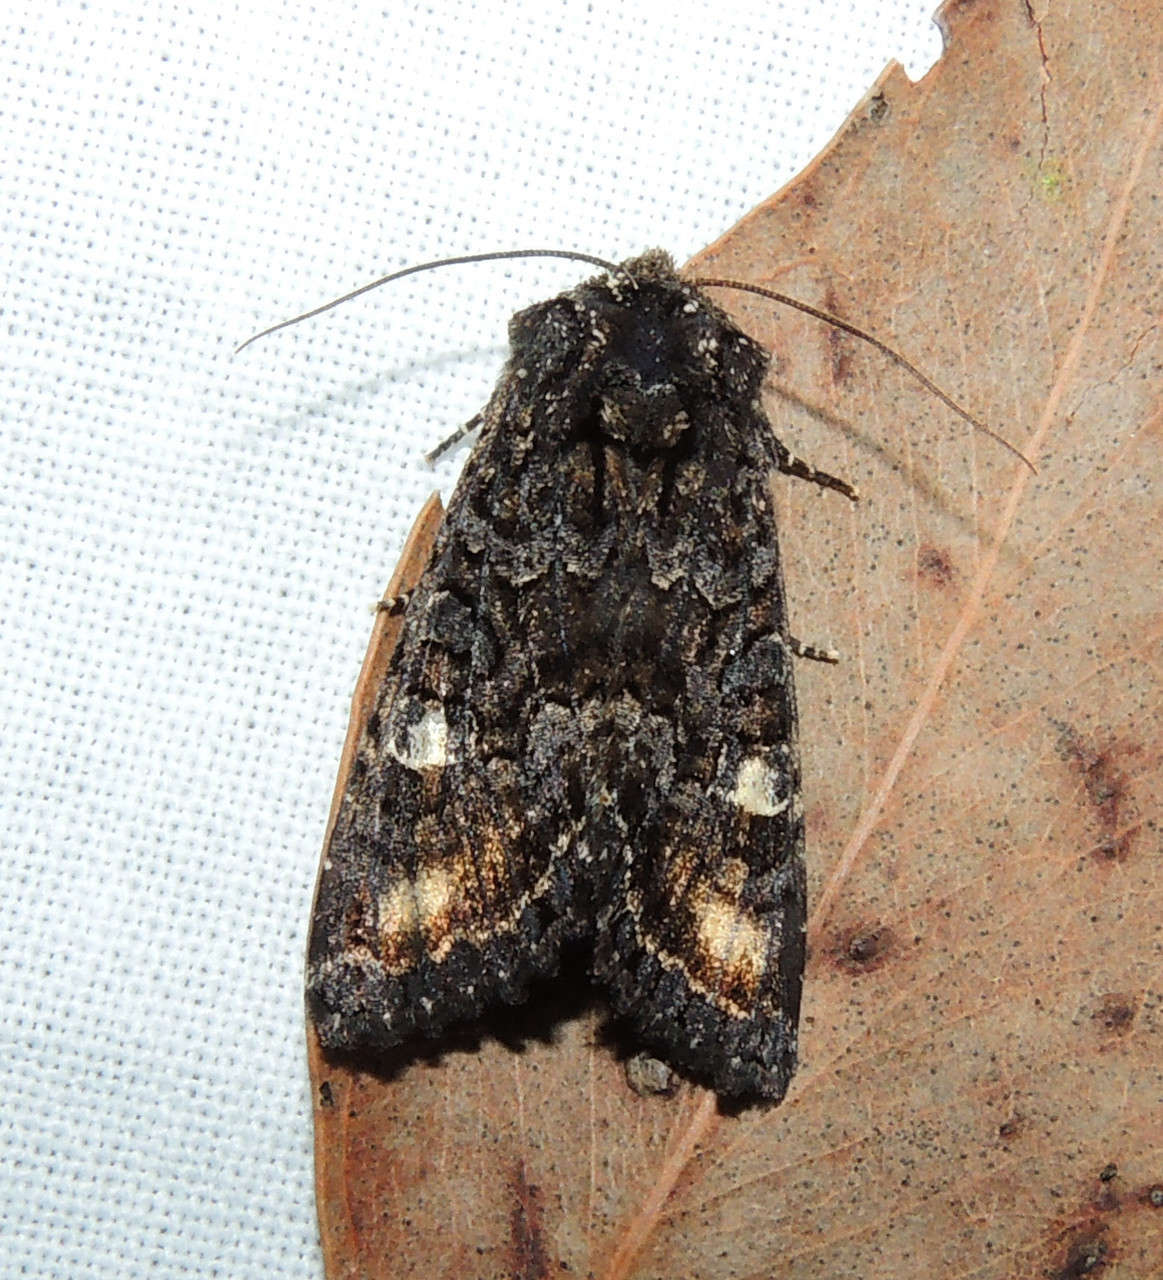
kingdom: Animalia
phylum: Arthropoda
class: Insecta
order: Lepidoptera
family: Noctuidae
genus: Neumichtis
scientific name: Neumichtis spumigera
